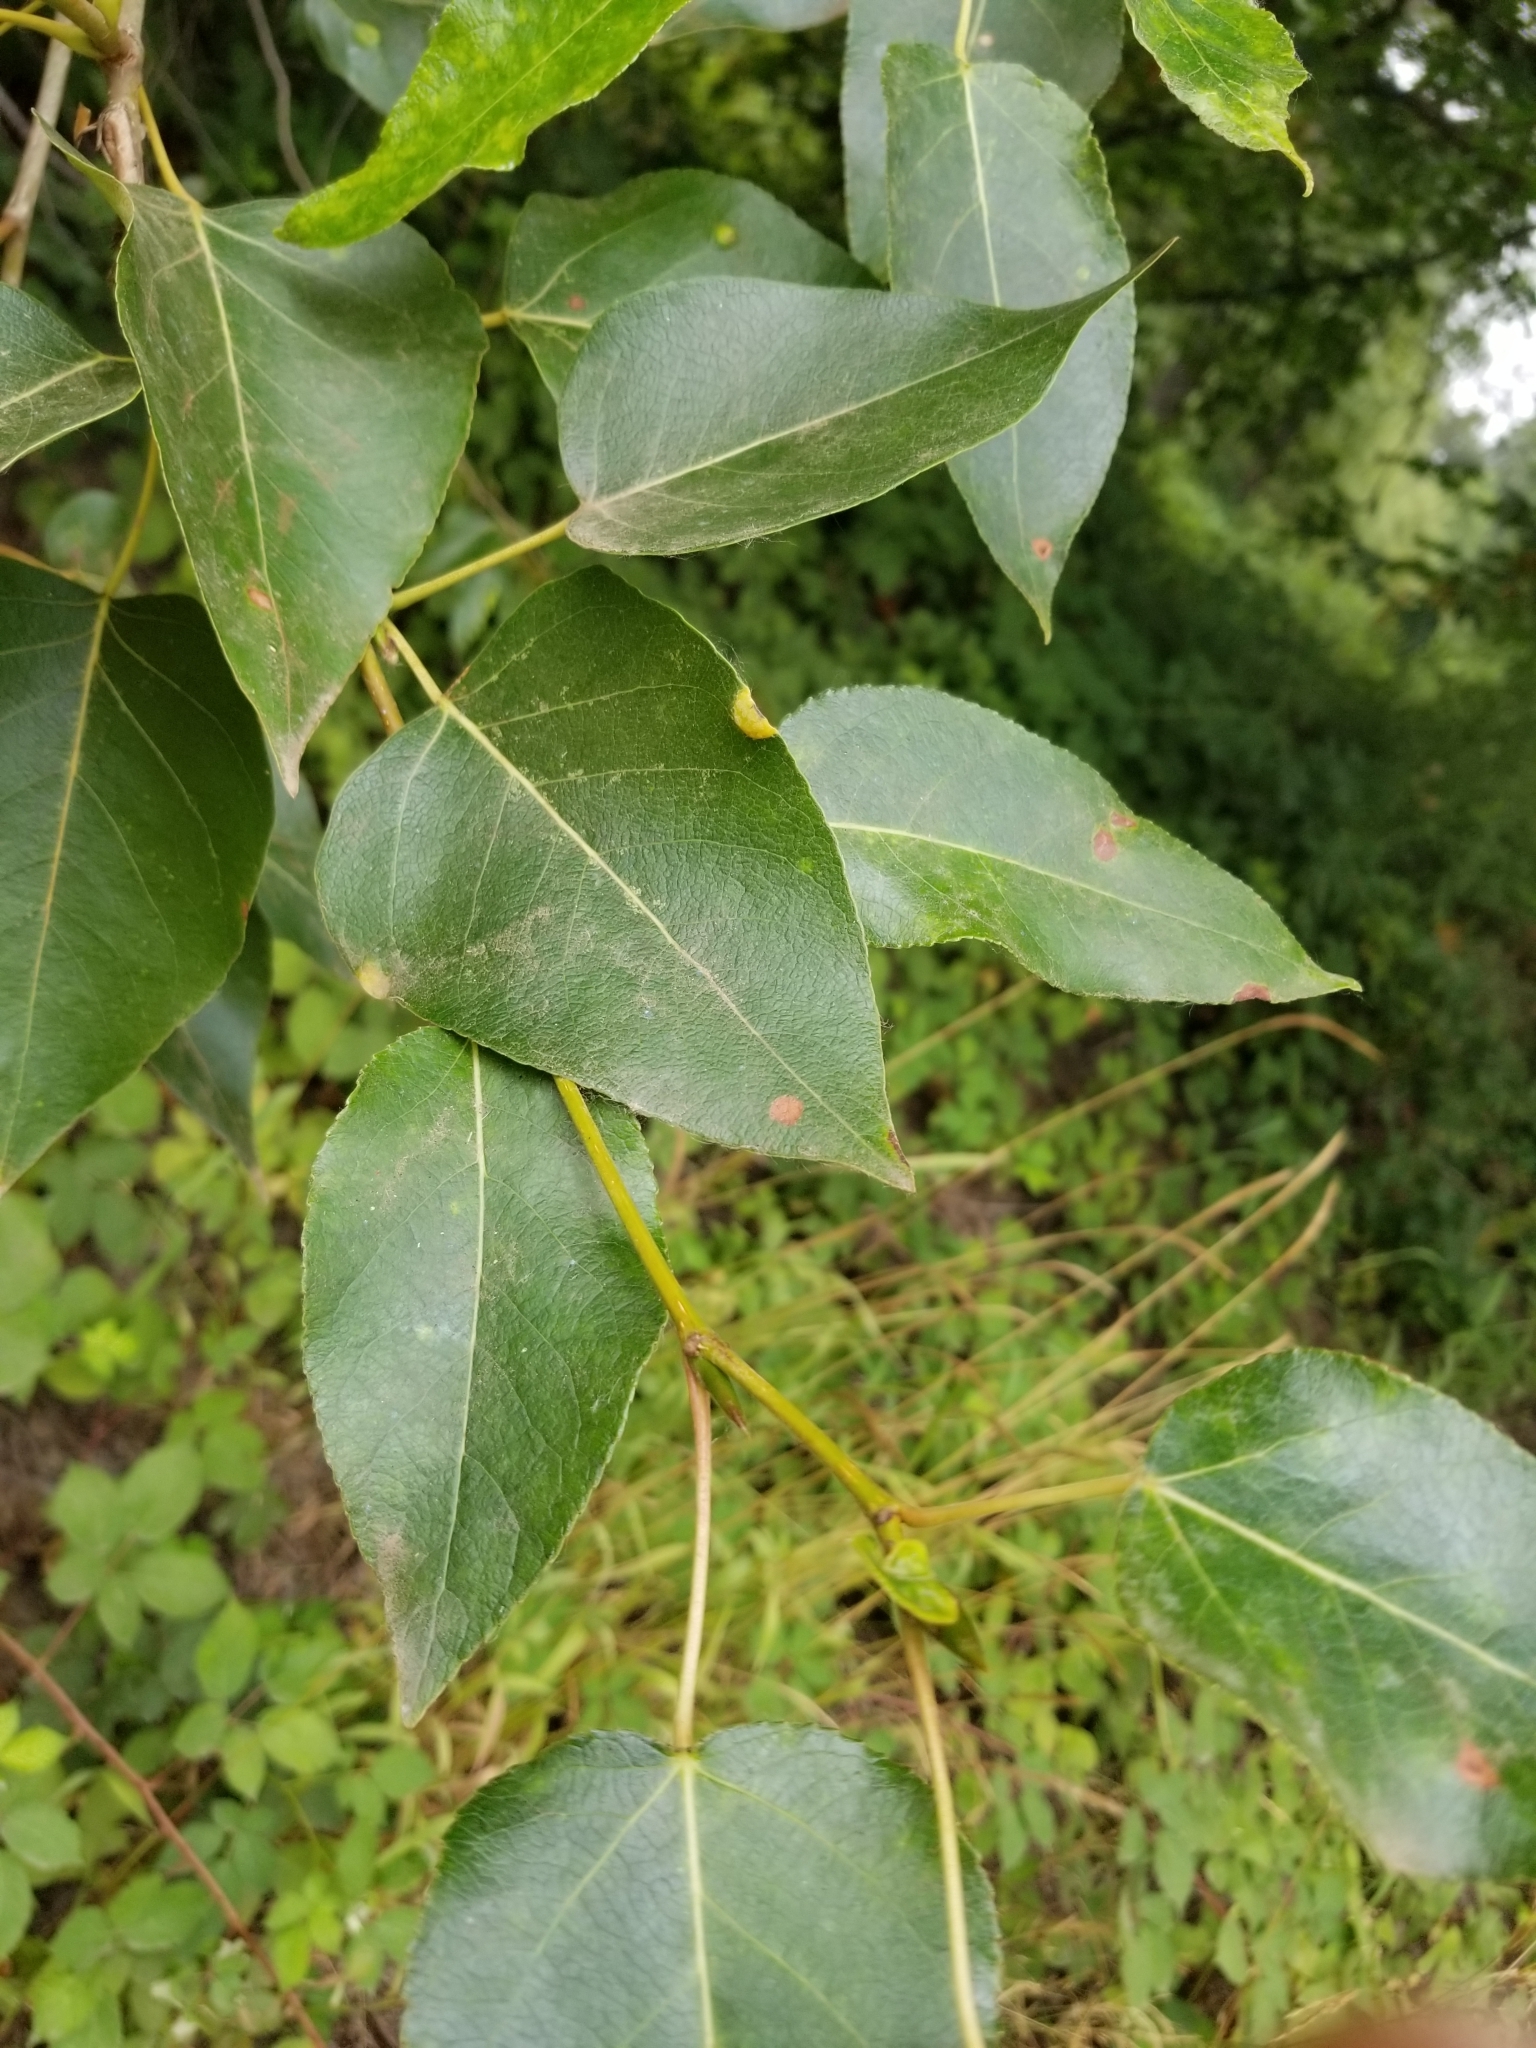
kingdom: Plantae
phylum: Tracheophyta
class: Magnoliopsida
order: Malpighiales
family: Salicaceae
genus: Populus
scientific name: Populus trichocarpa
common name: Black cottonwood
